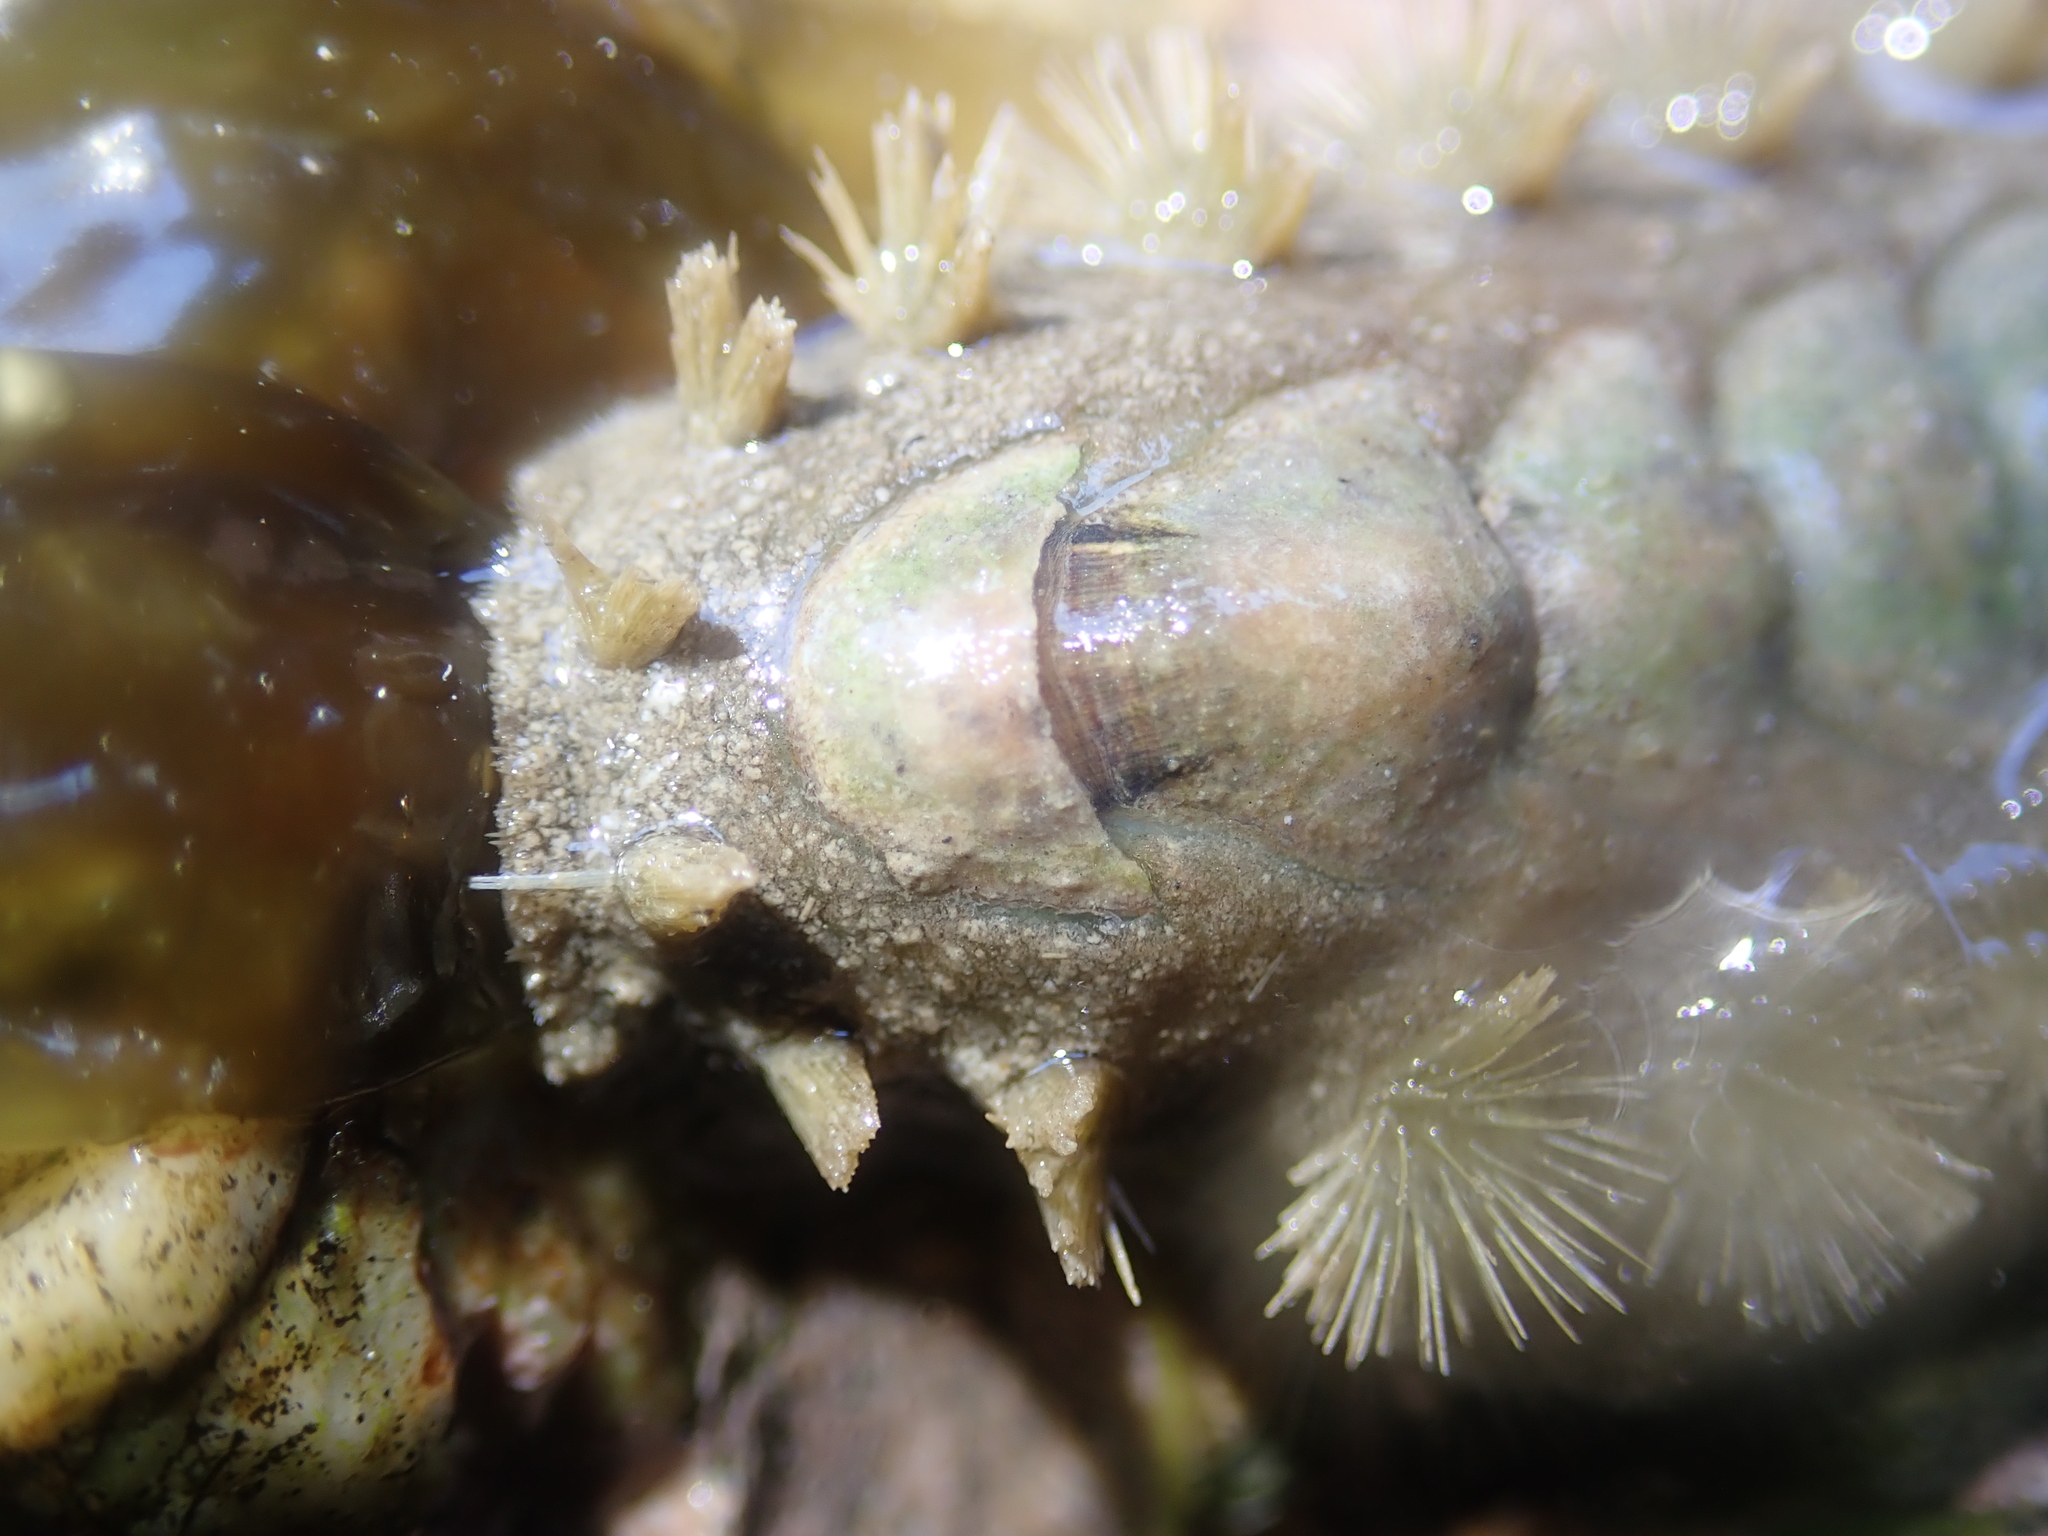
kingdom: Animalia
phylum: Mollusca
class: Polyplacophora
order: Chitonida
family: Acanthochitonidae
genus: Acanthochitona
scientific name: Acanthochitona zelandica
